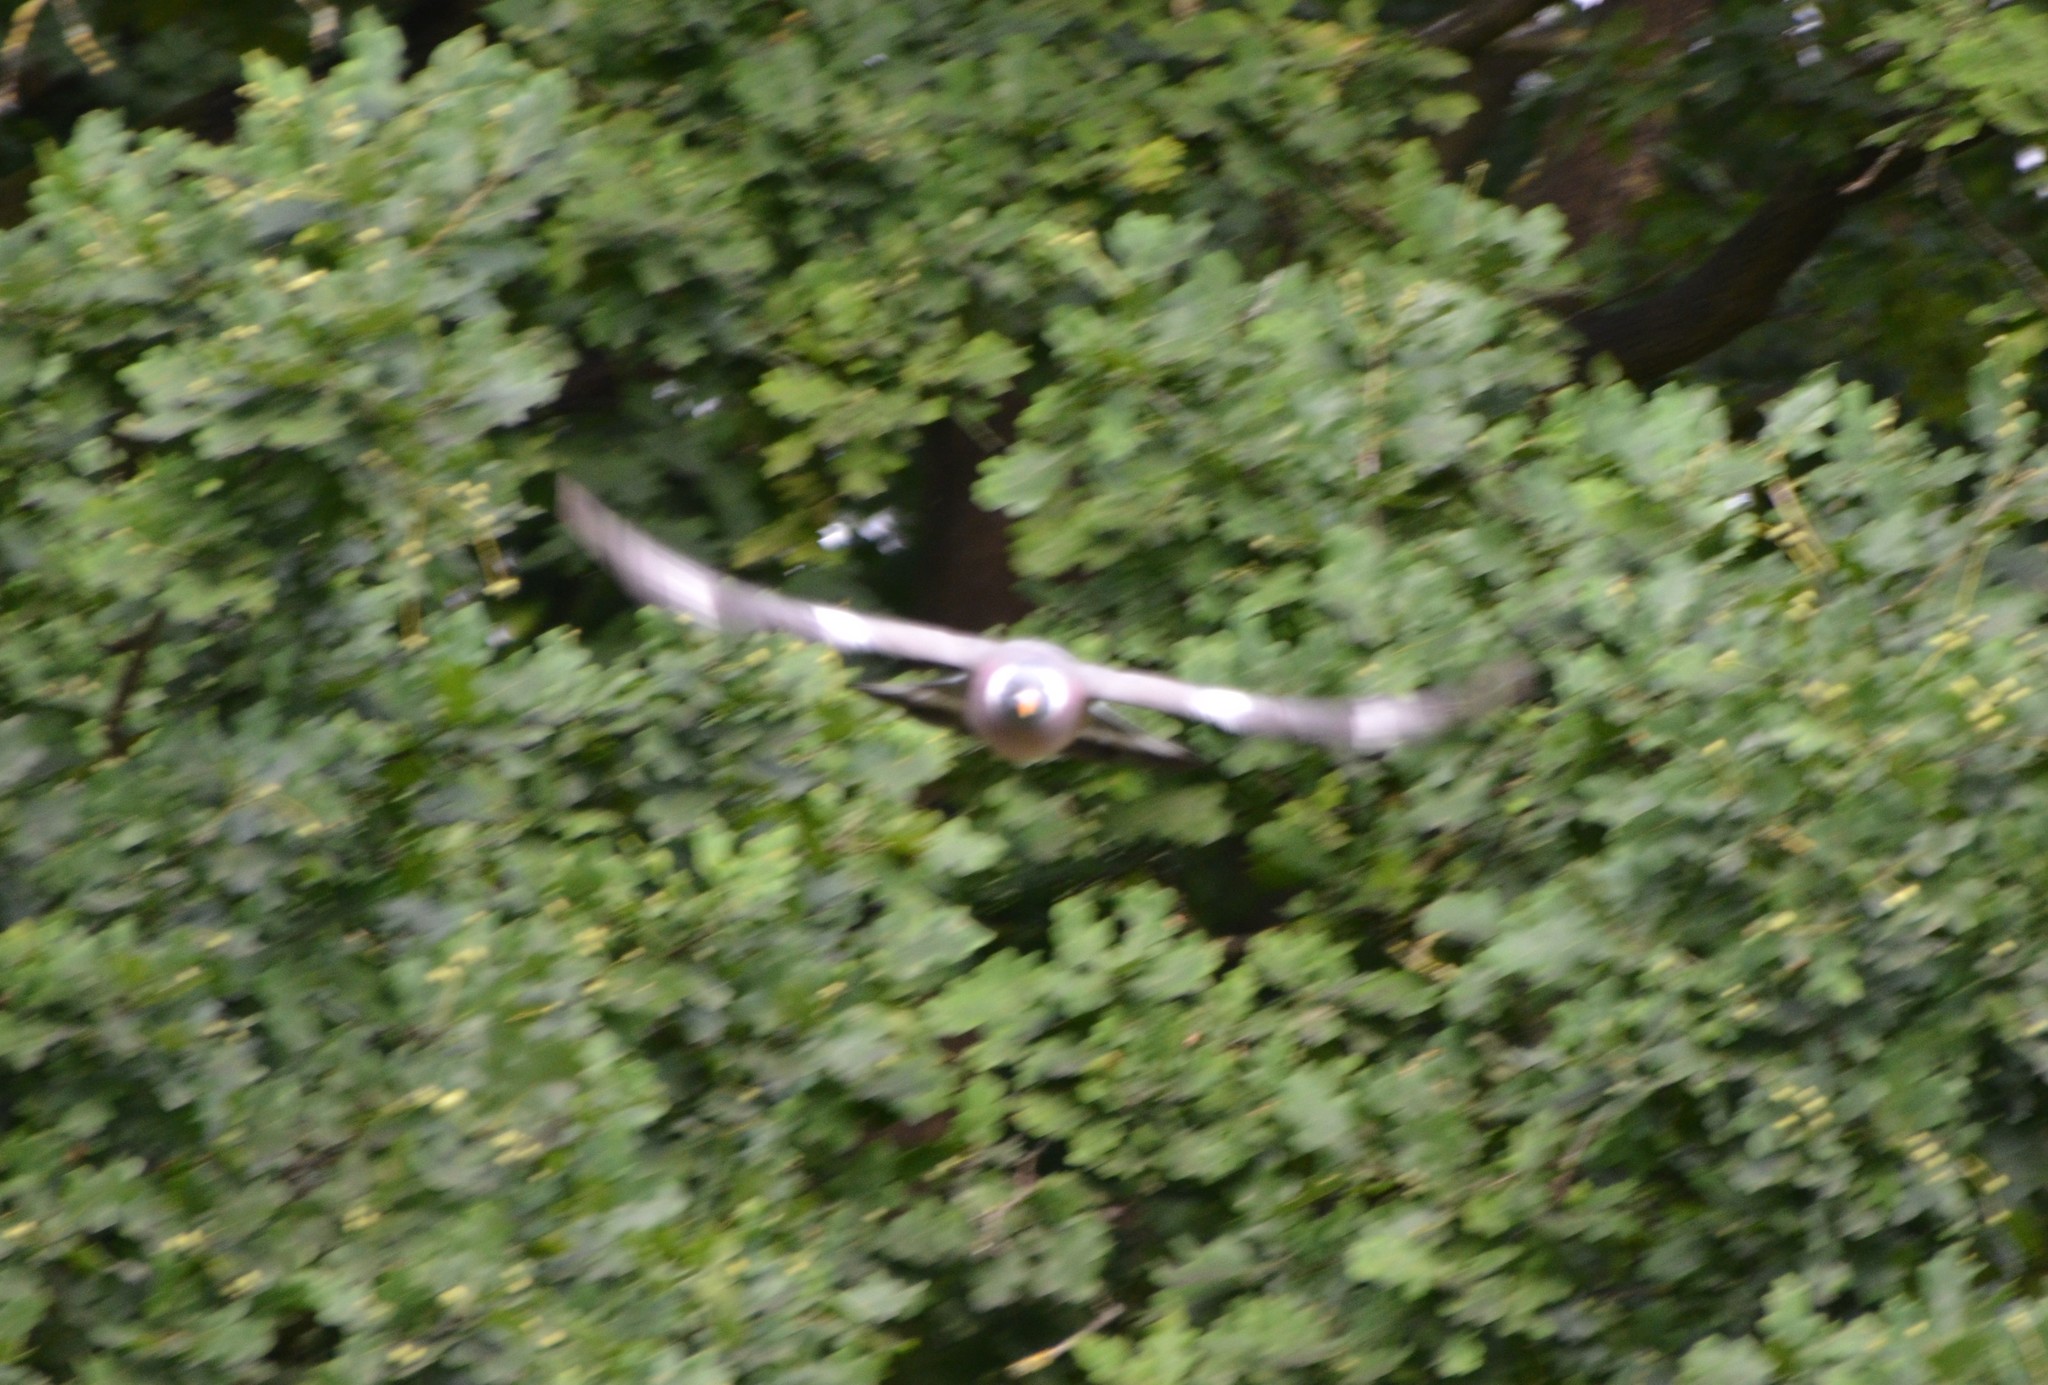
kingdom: Animalia
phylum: Chordata
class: Aves
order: Columbiformes
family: Columbidae
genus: Columba
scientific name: Columba palumbus
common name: Common wood pigeon
